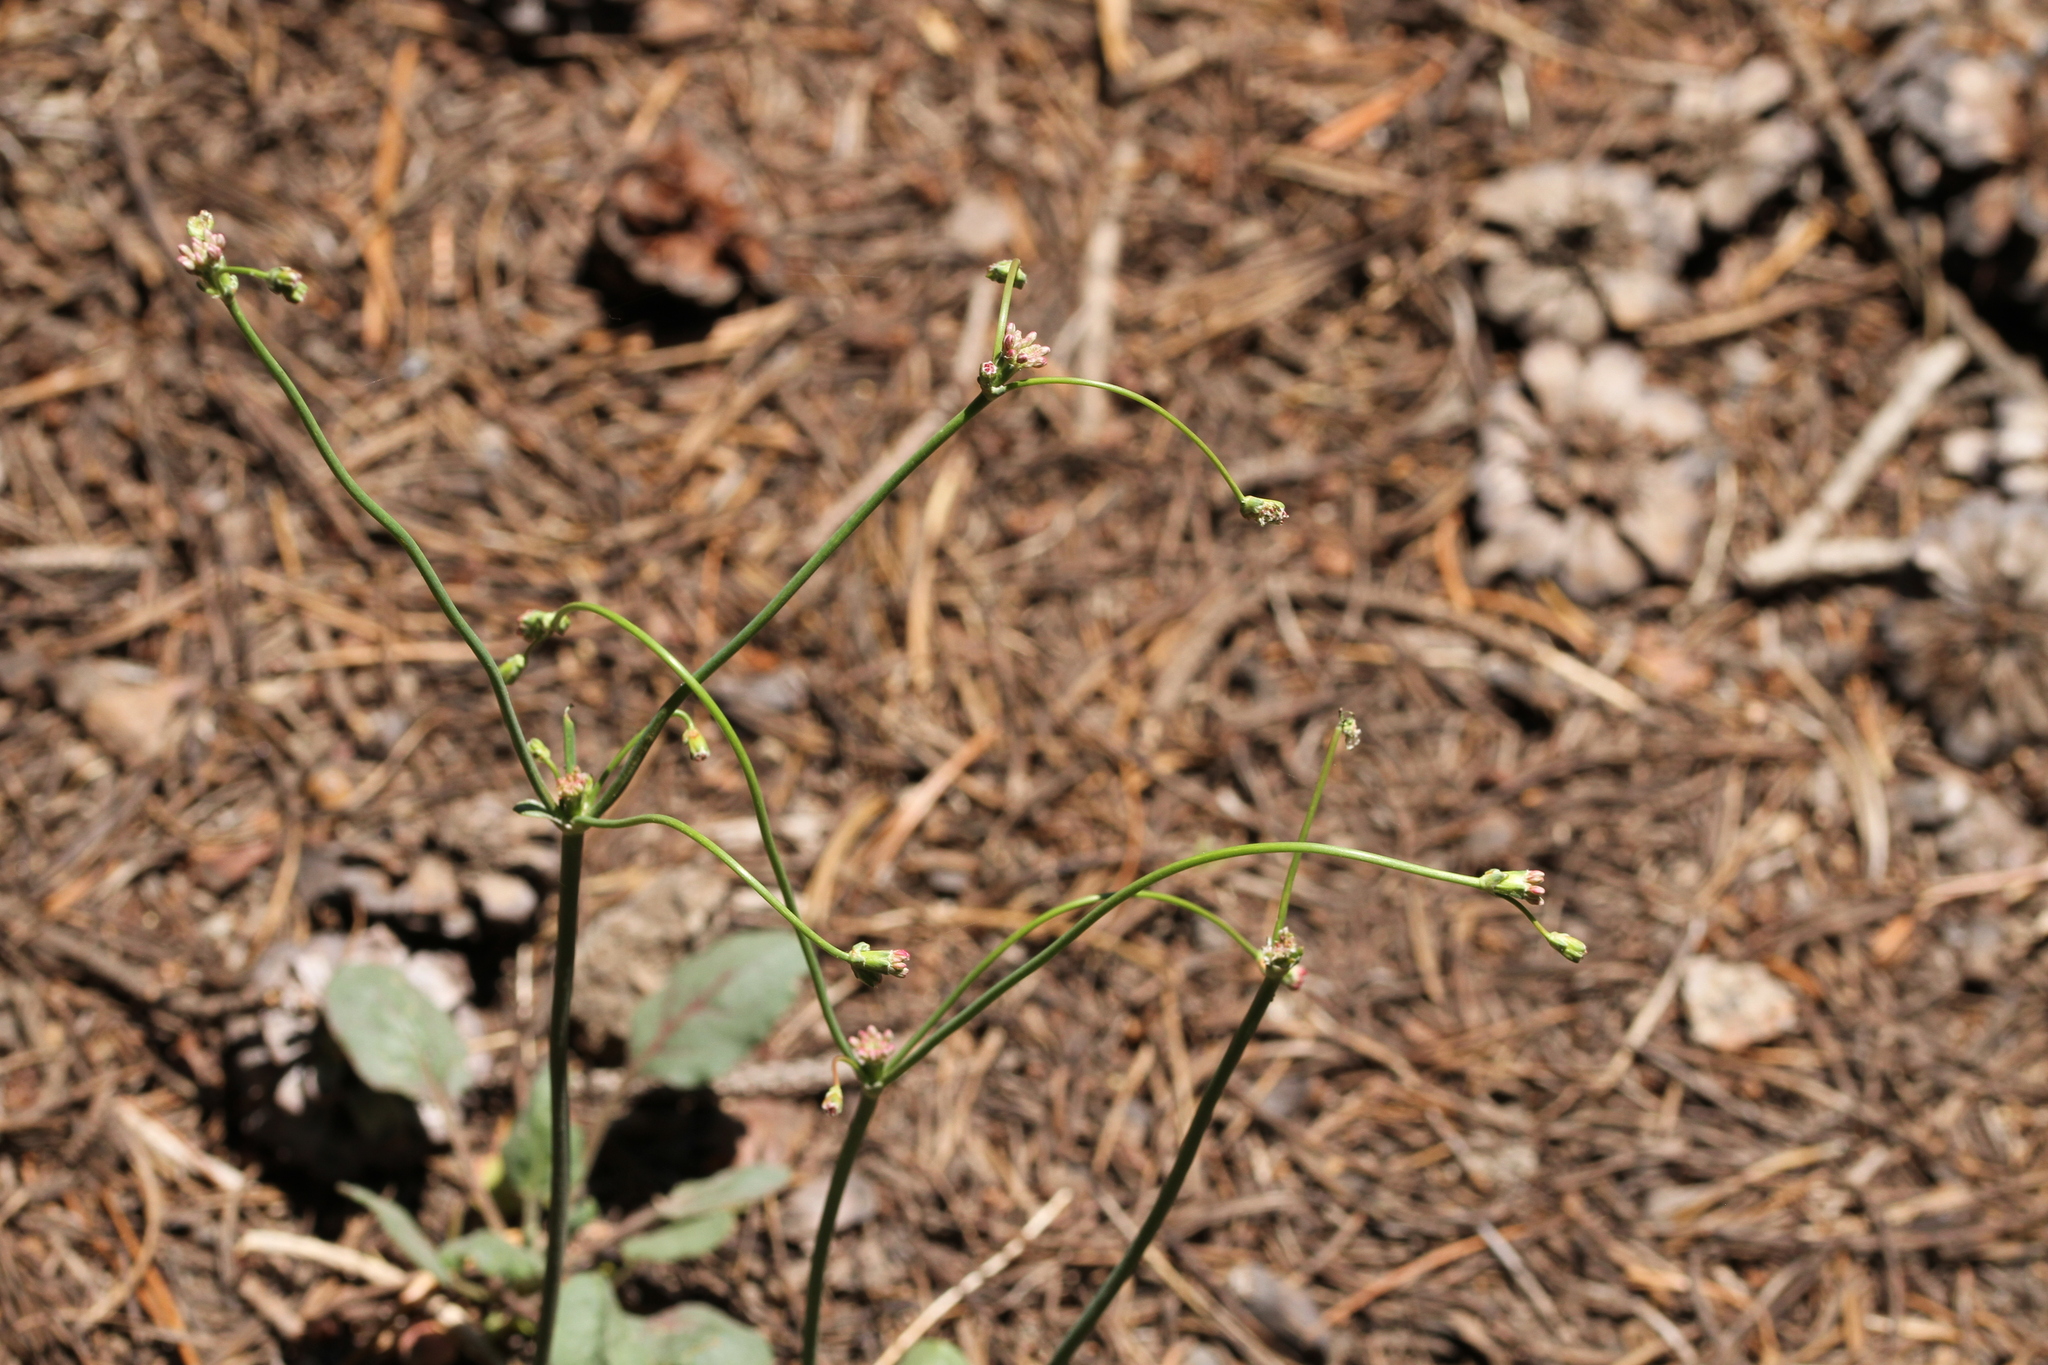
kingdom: Plantae
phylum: Tracheophyta
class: Magnoliopsida
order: Caryophyllales
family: Polygonaceae
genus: Eriogonum
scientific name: Eriogonum nudum
